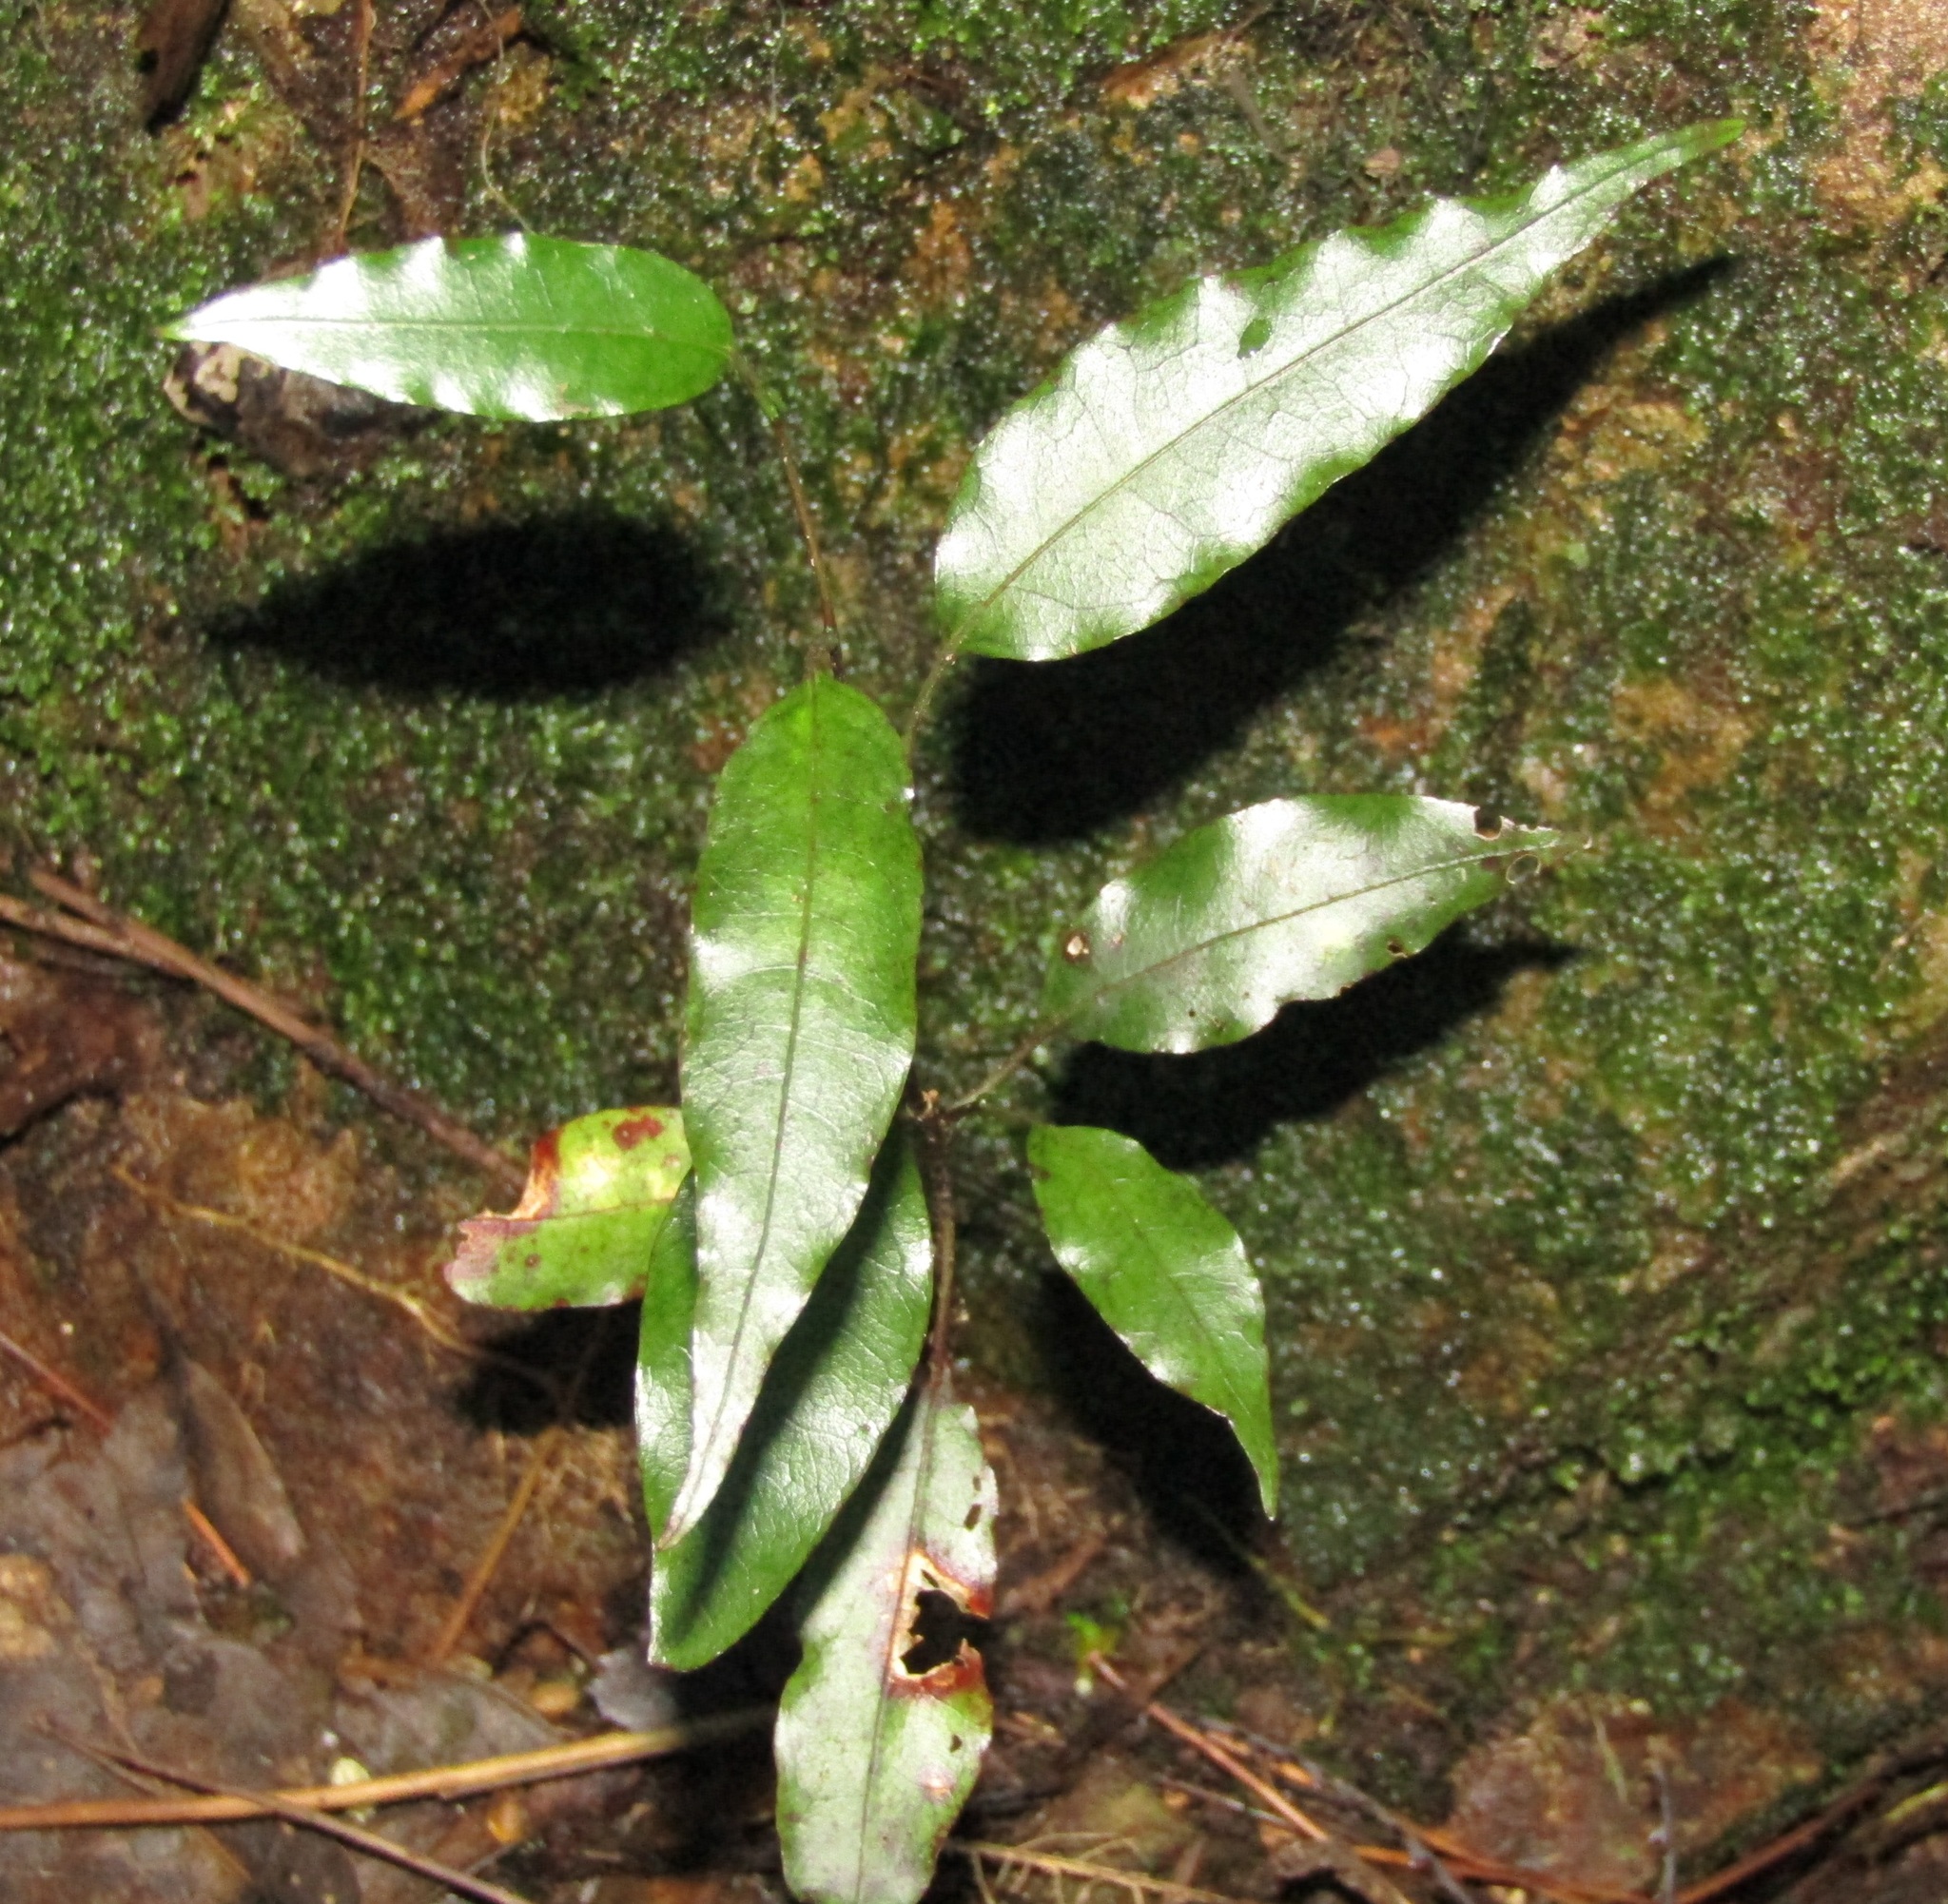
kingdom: Plantae
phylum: Tracheophyta
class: Magnoliopsida
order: Malpighiales
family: Passifloraceae
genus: Passiflora
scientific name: Passiflora tetrandra
